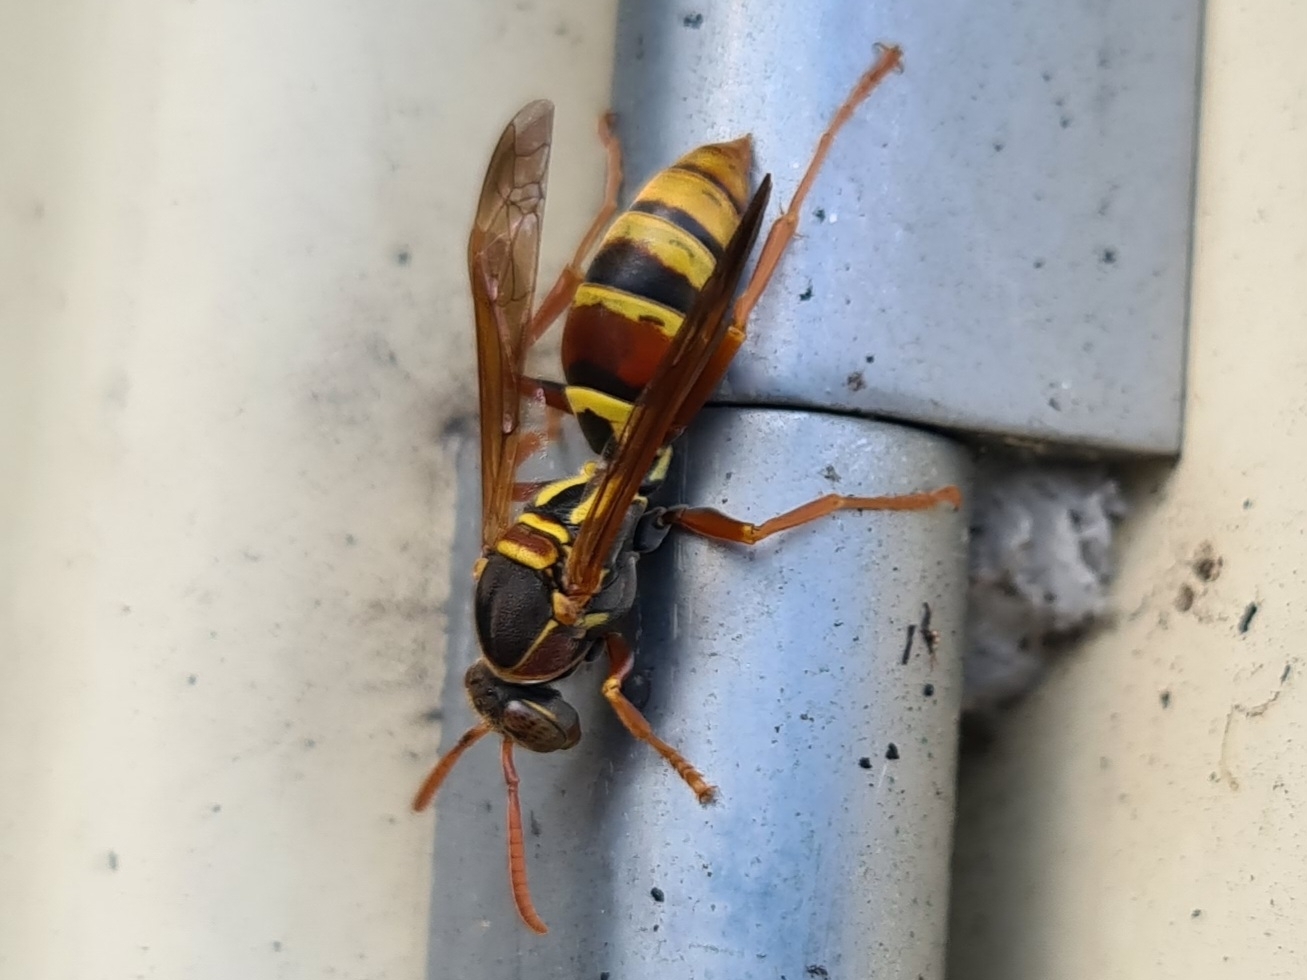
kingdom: Animalia
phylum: Arthropoda
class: Insecta
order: Hymenoptera
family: Eumenidae
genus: Polistes
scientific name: Polistes humilis
